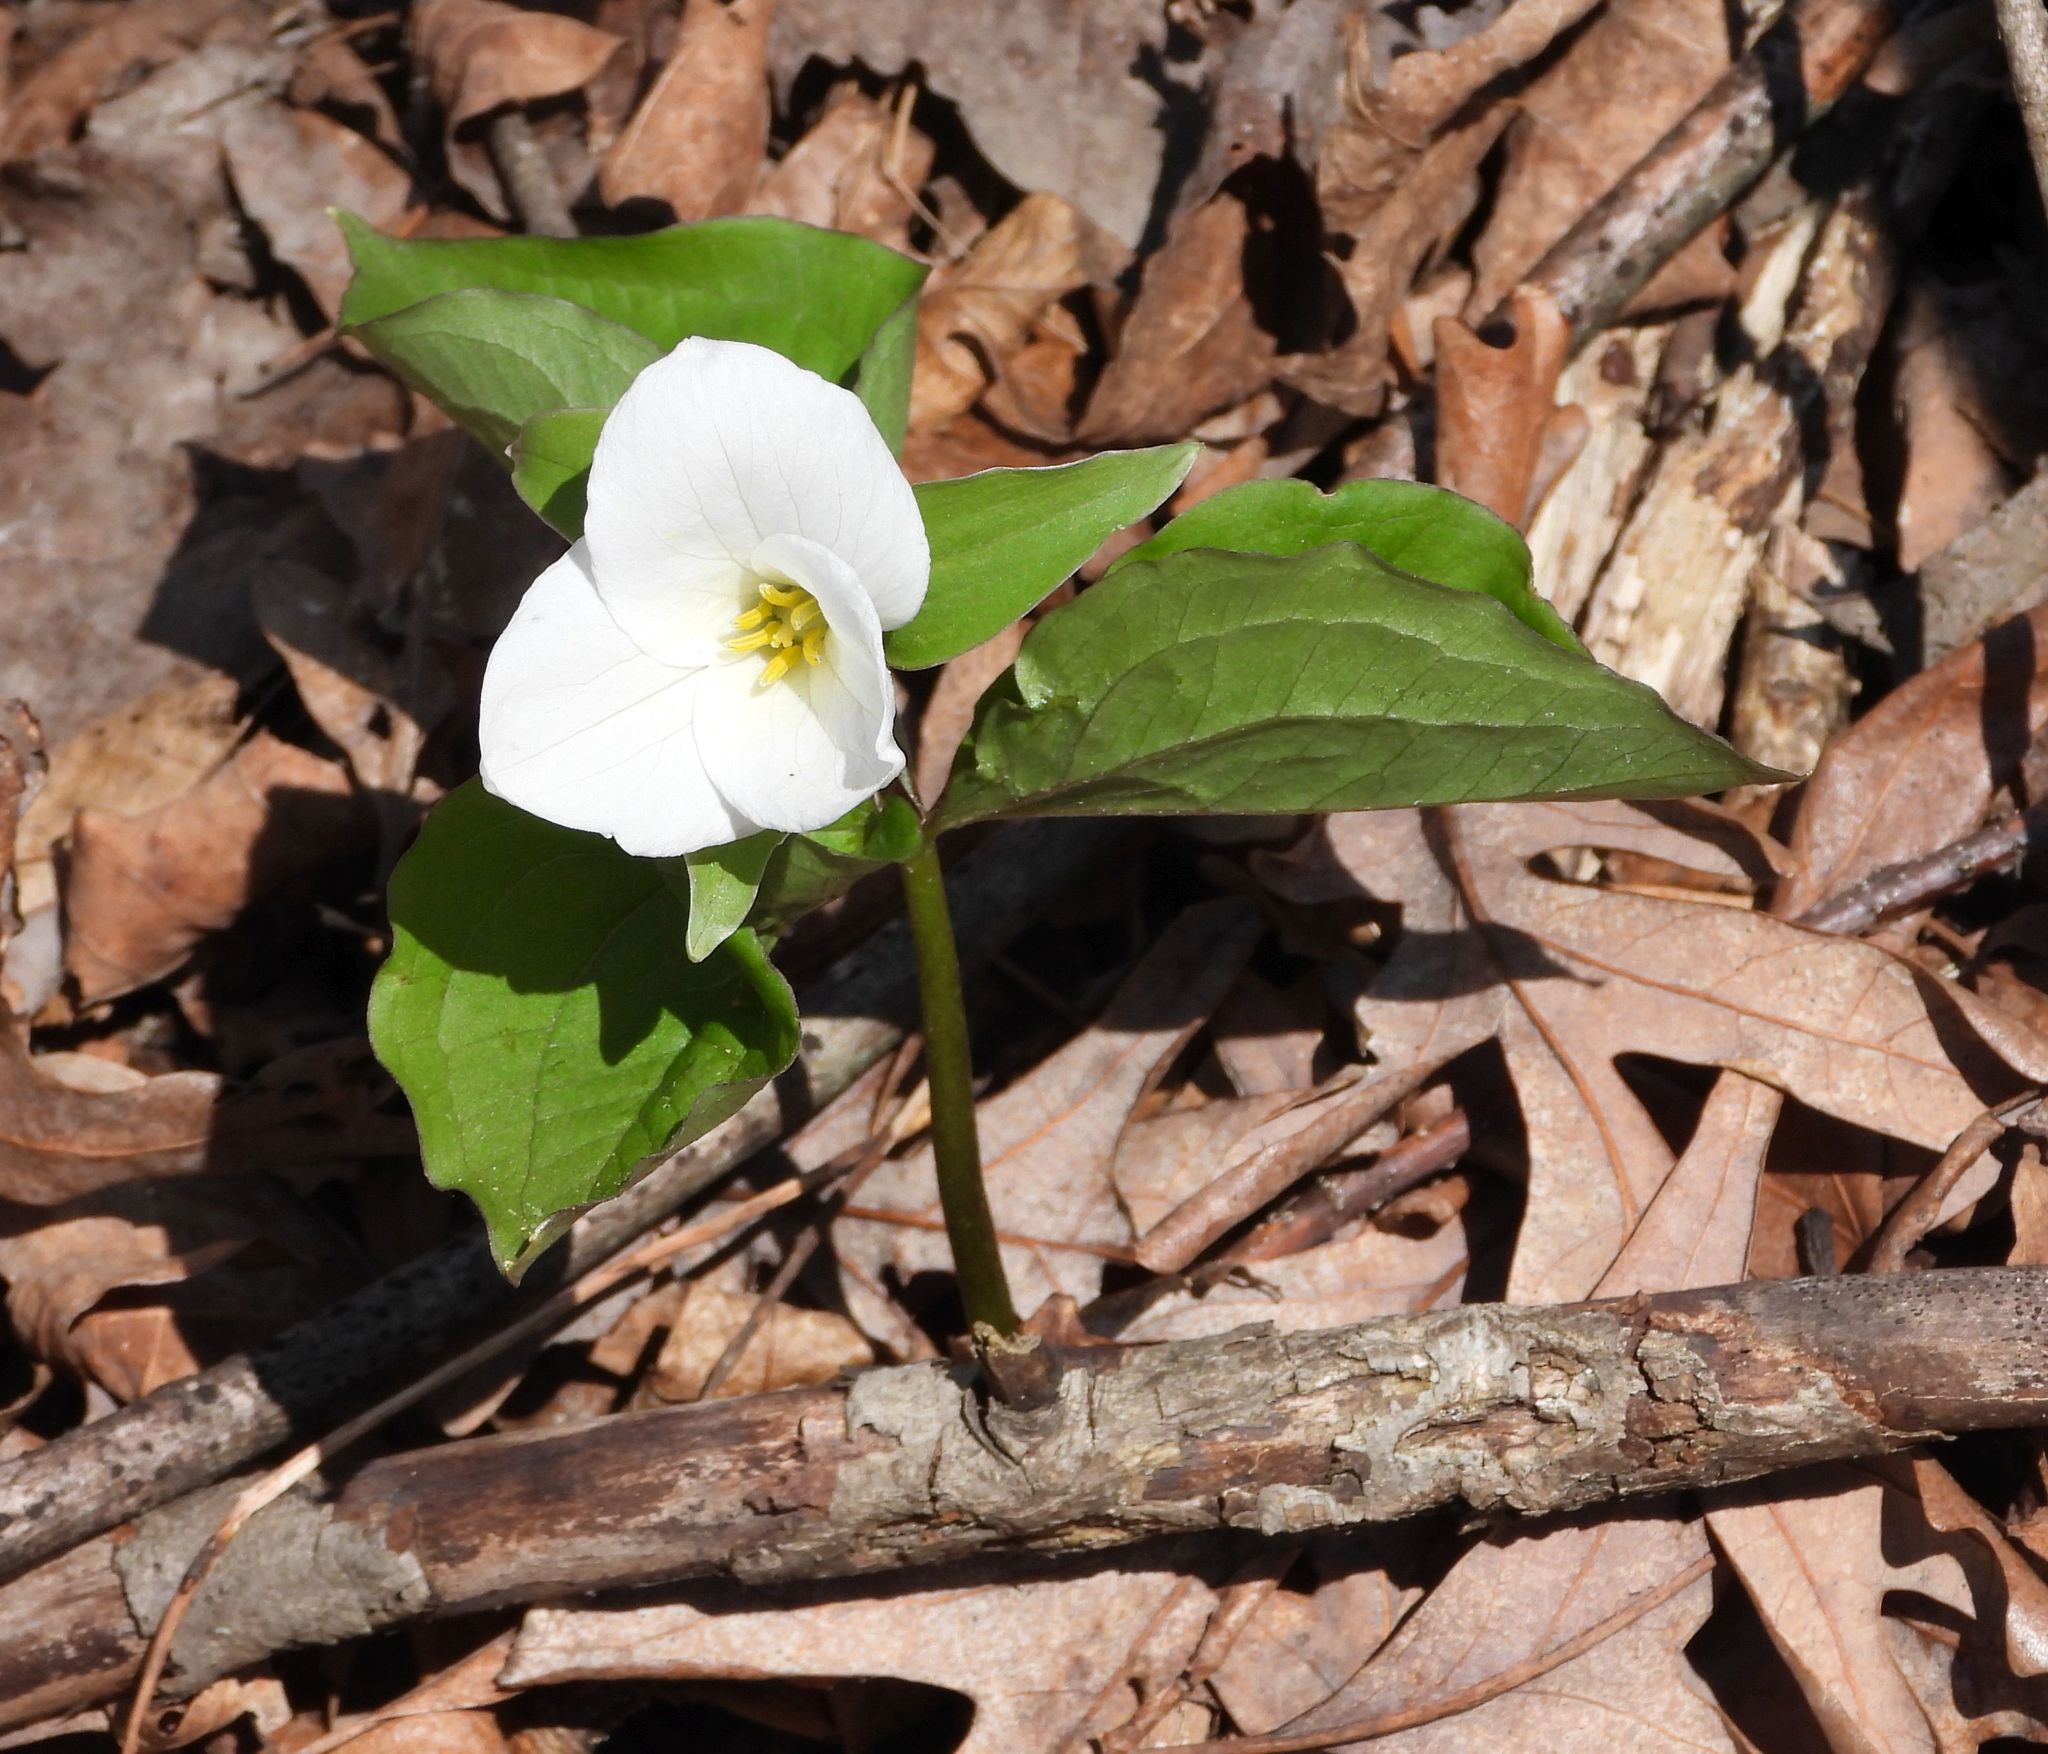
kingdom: Plantae
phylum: Tracheophyta
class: Liliopsida
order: Liliales
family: Melanthiaceae
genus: Trillium
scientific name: Trillium grandiflorum
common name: Great white trillium
